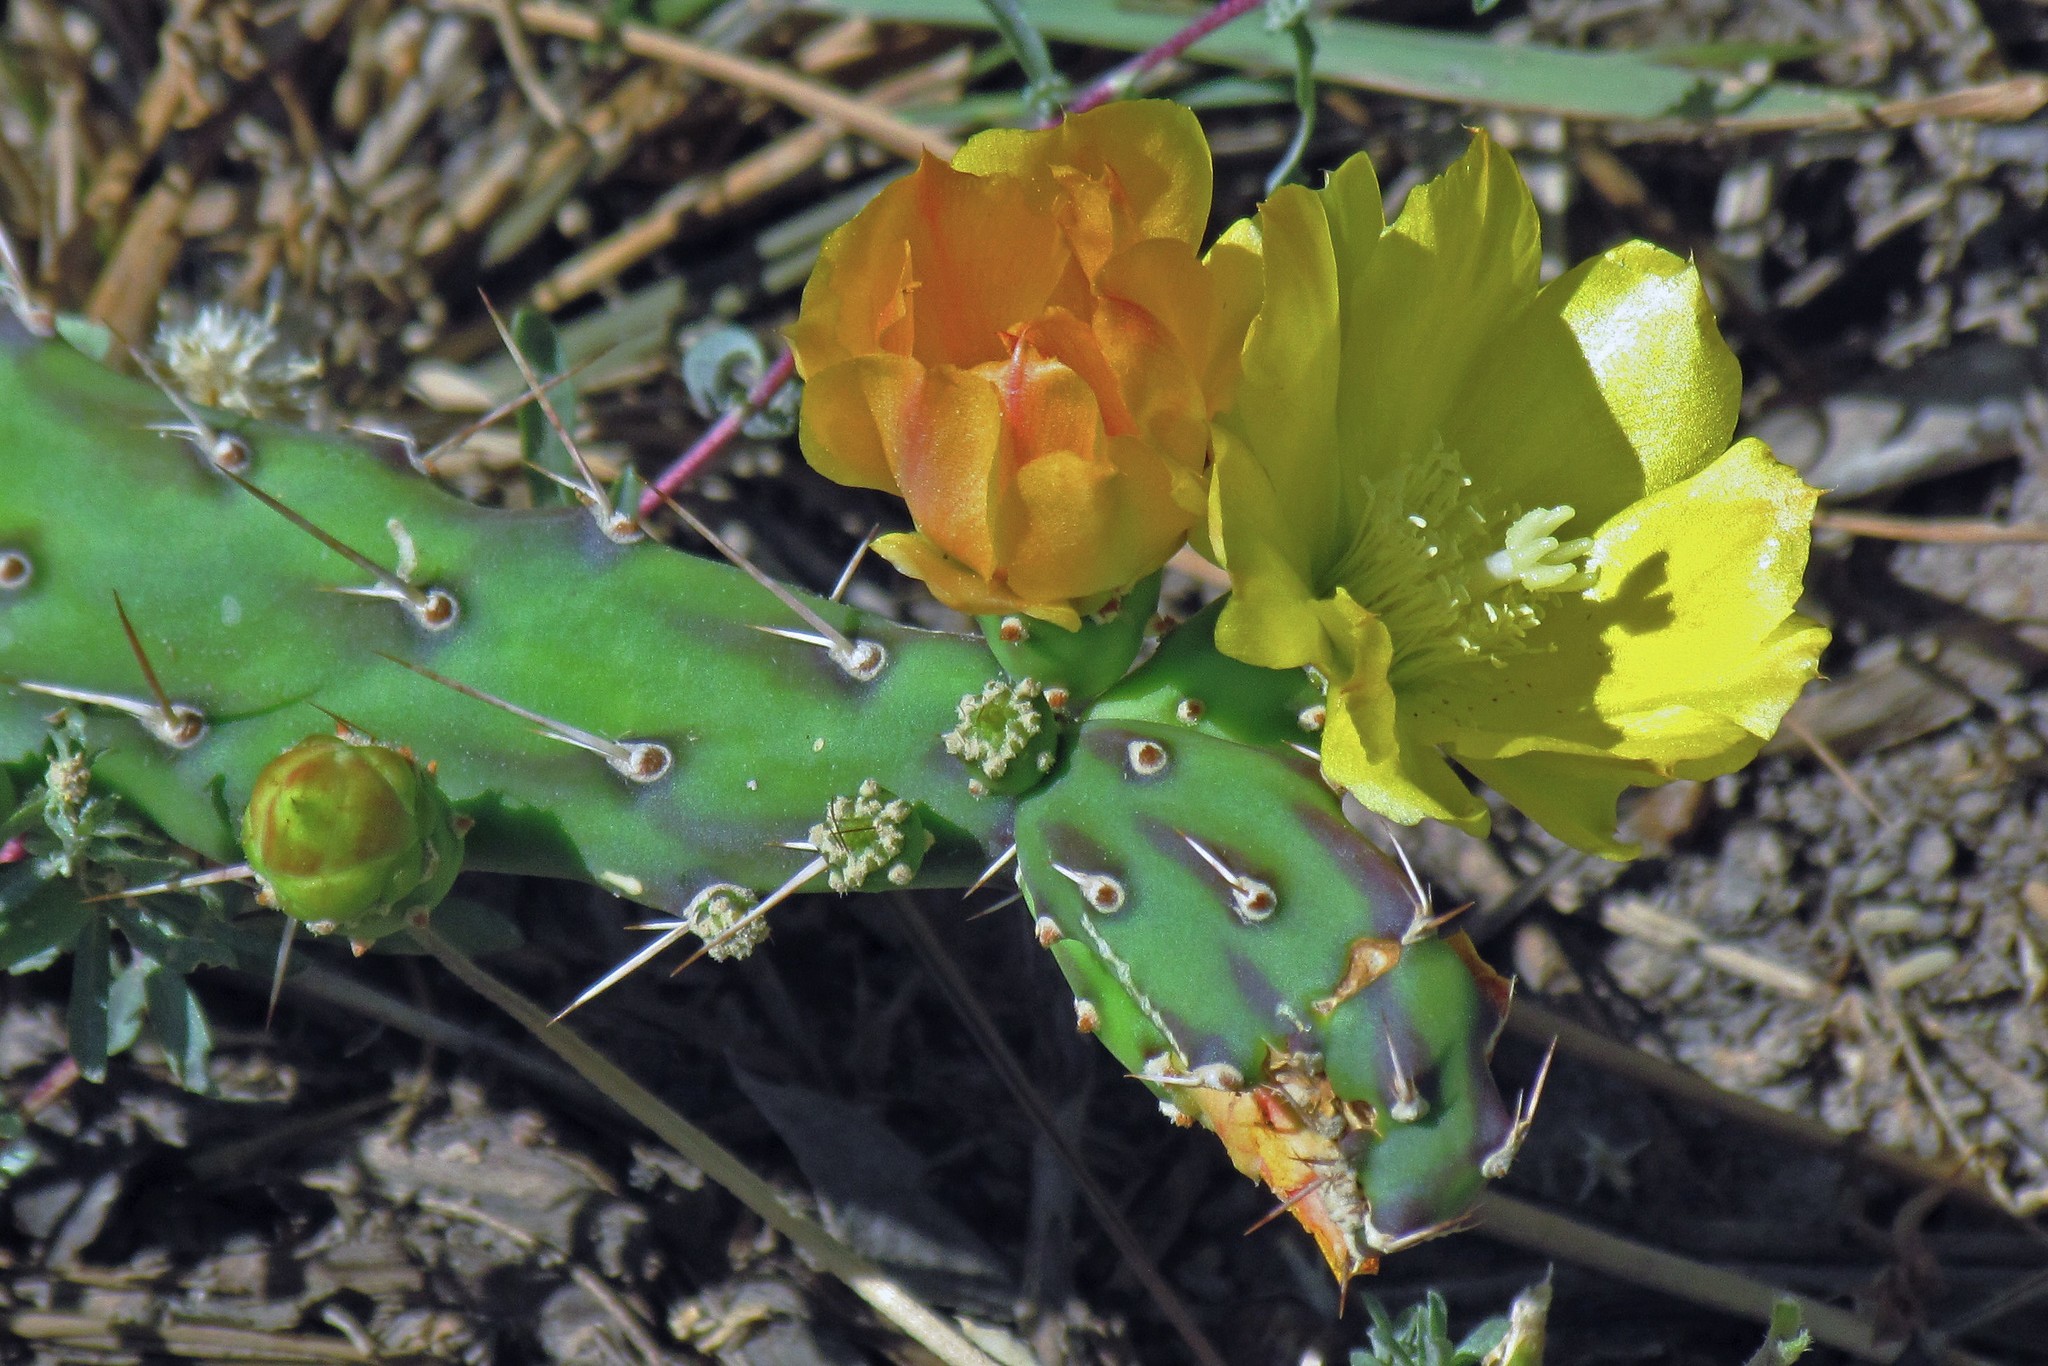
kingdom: Plantae
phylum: Tracheophyta
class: Magnoliopsida
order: Caryophyllales
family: Cactaceae
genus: Opuntia
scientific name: Opuntia anacantha
